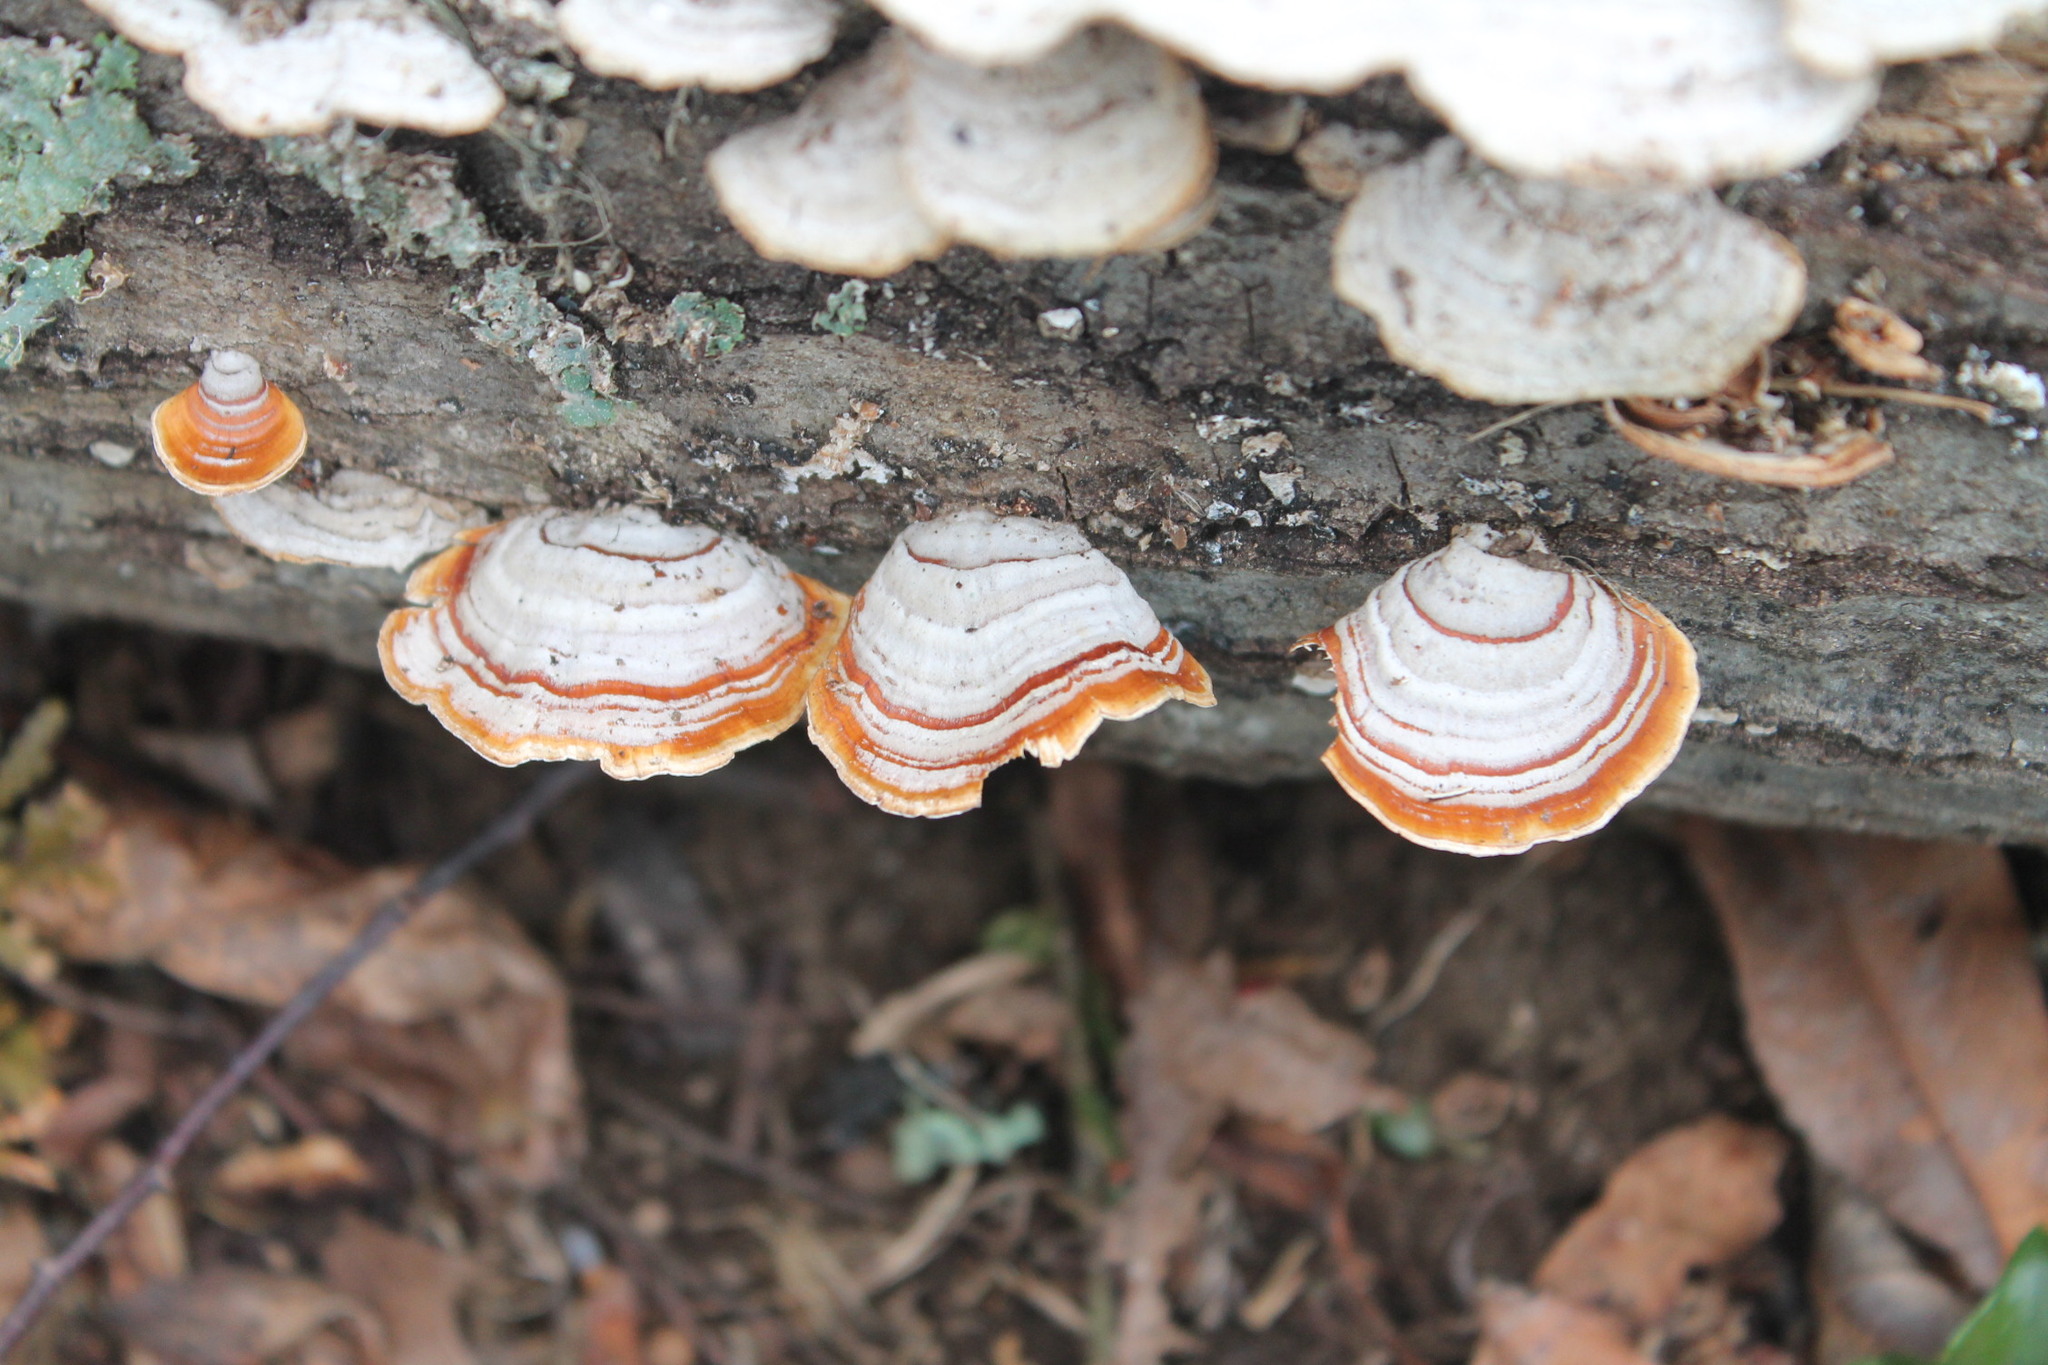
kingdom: Fungi
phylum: Basidiomycota
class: Agaricomycetes
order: Russulales
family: Stereaceae
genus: Stereum
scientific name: Stereum lobatum
